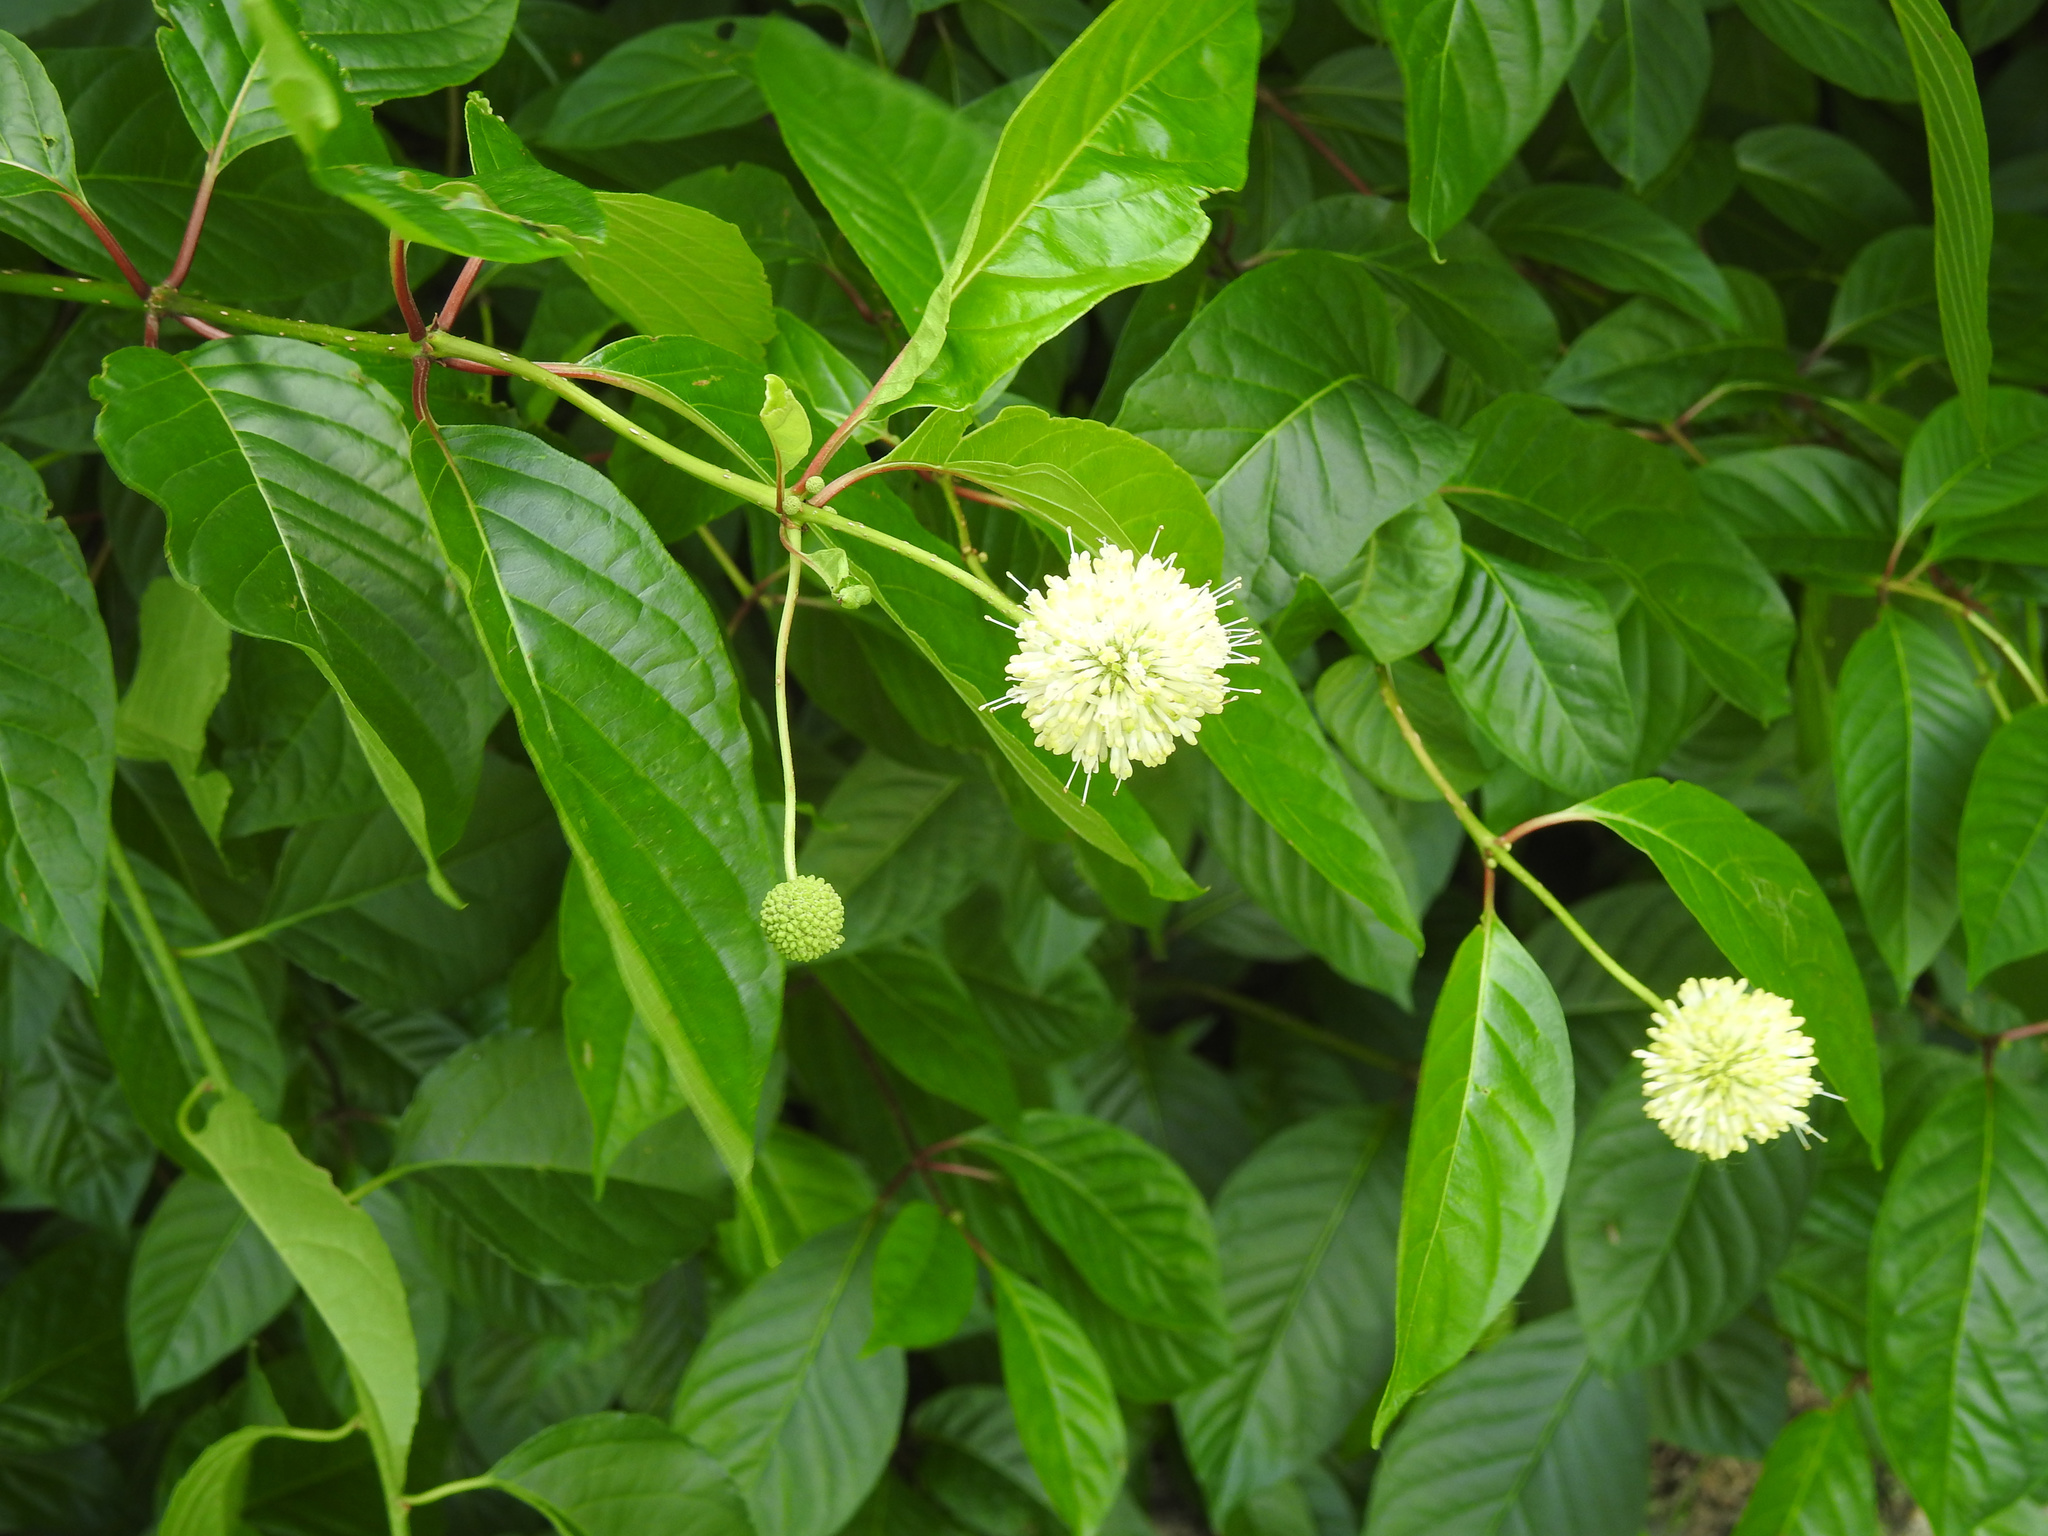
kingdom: Plantae
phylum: Tracheophyta
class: Magnoliopsida
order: Gentianales
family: Rubiaceae
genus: Cephalanthus
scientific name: Cephalanthus occidentalis
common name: Button-willow
